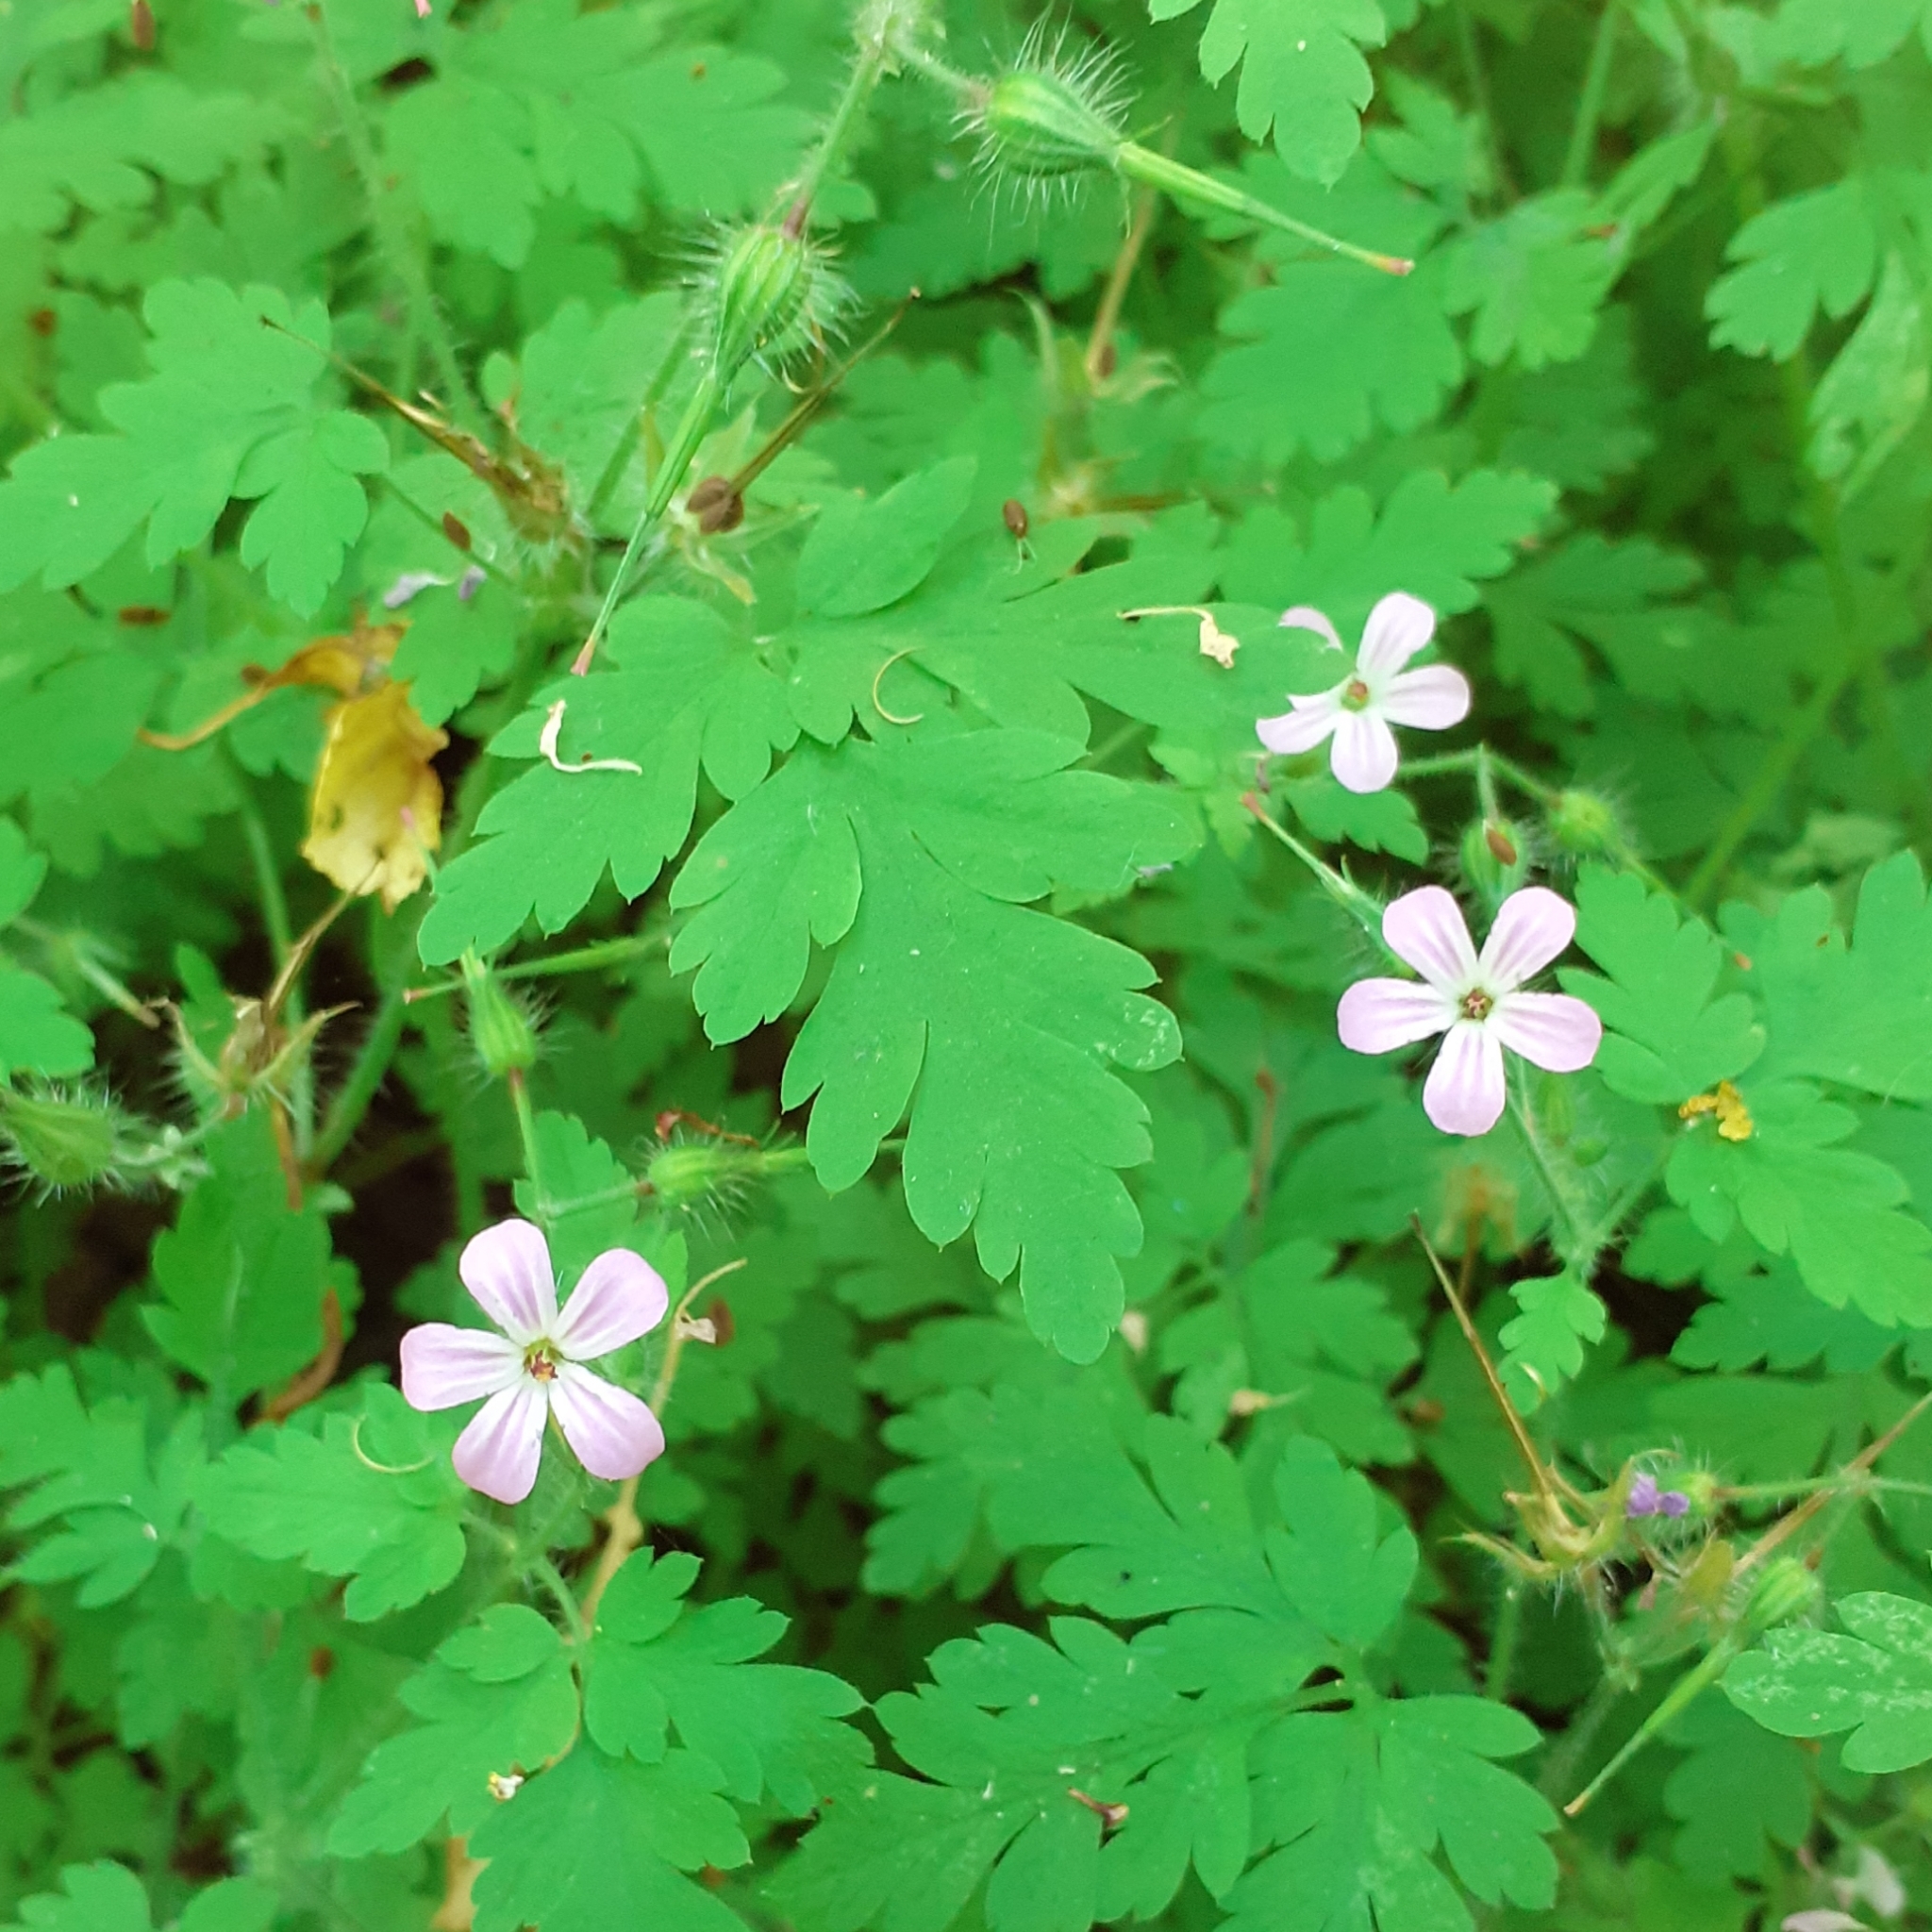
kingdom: Plantae
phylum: Tracheophyta
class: Magnoliopsida
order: Geraniales
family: Geraniaceae
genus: Geranium
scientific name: Geranium robertianum
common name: Herb-robert
